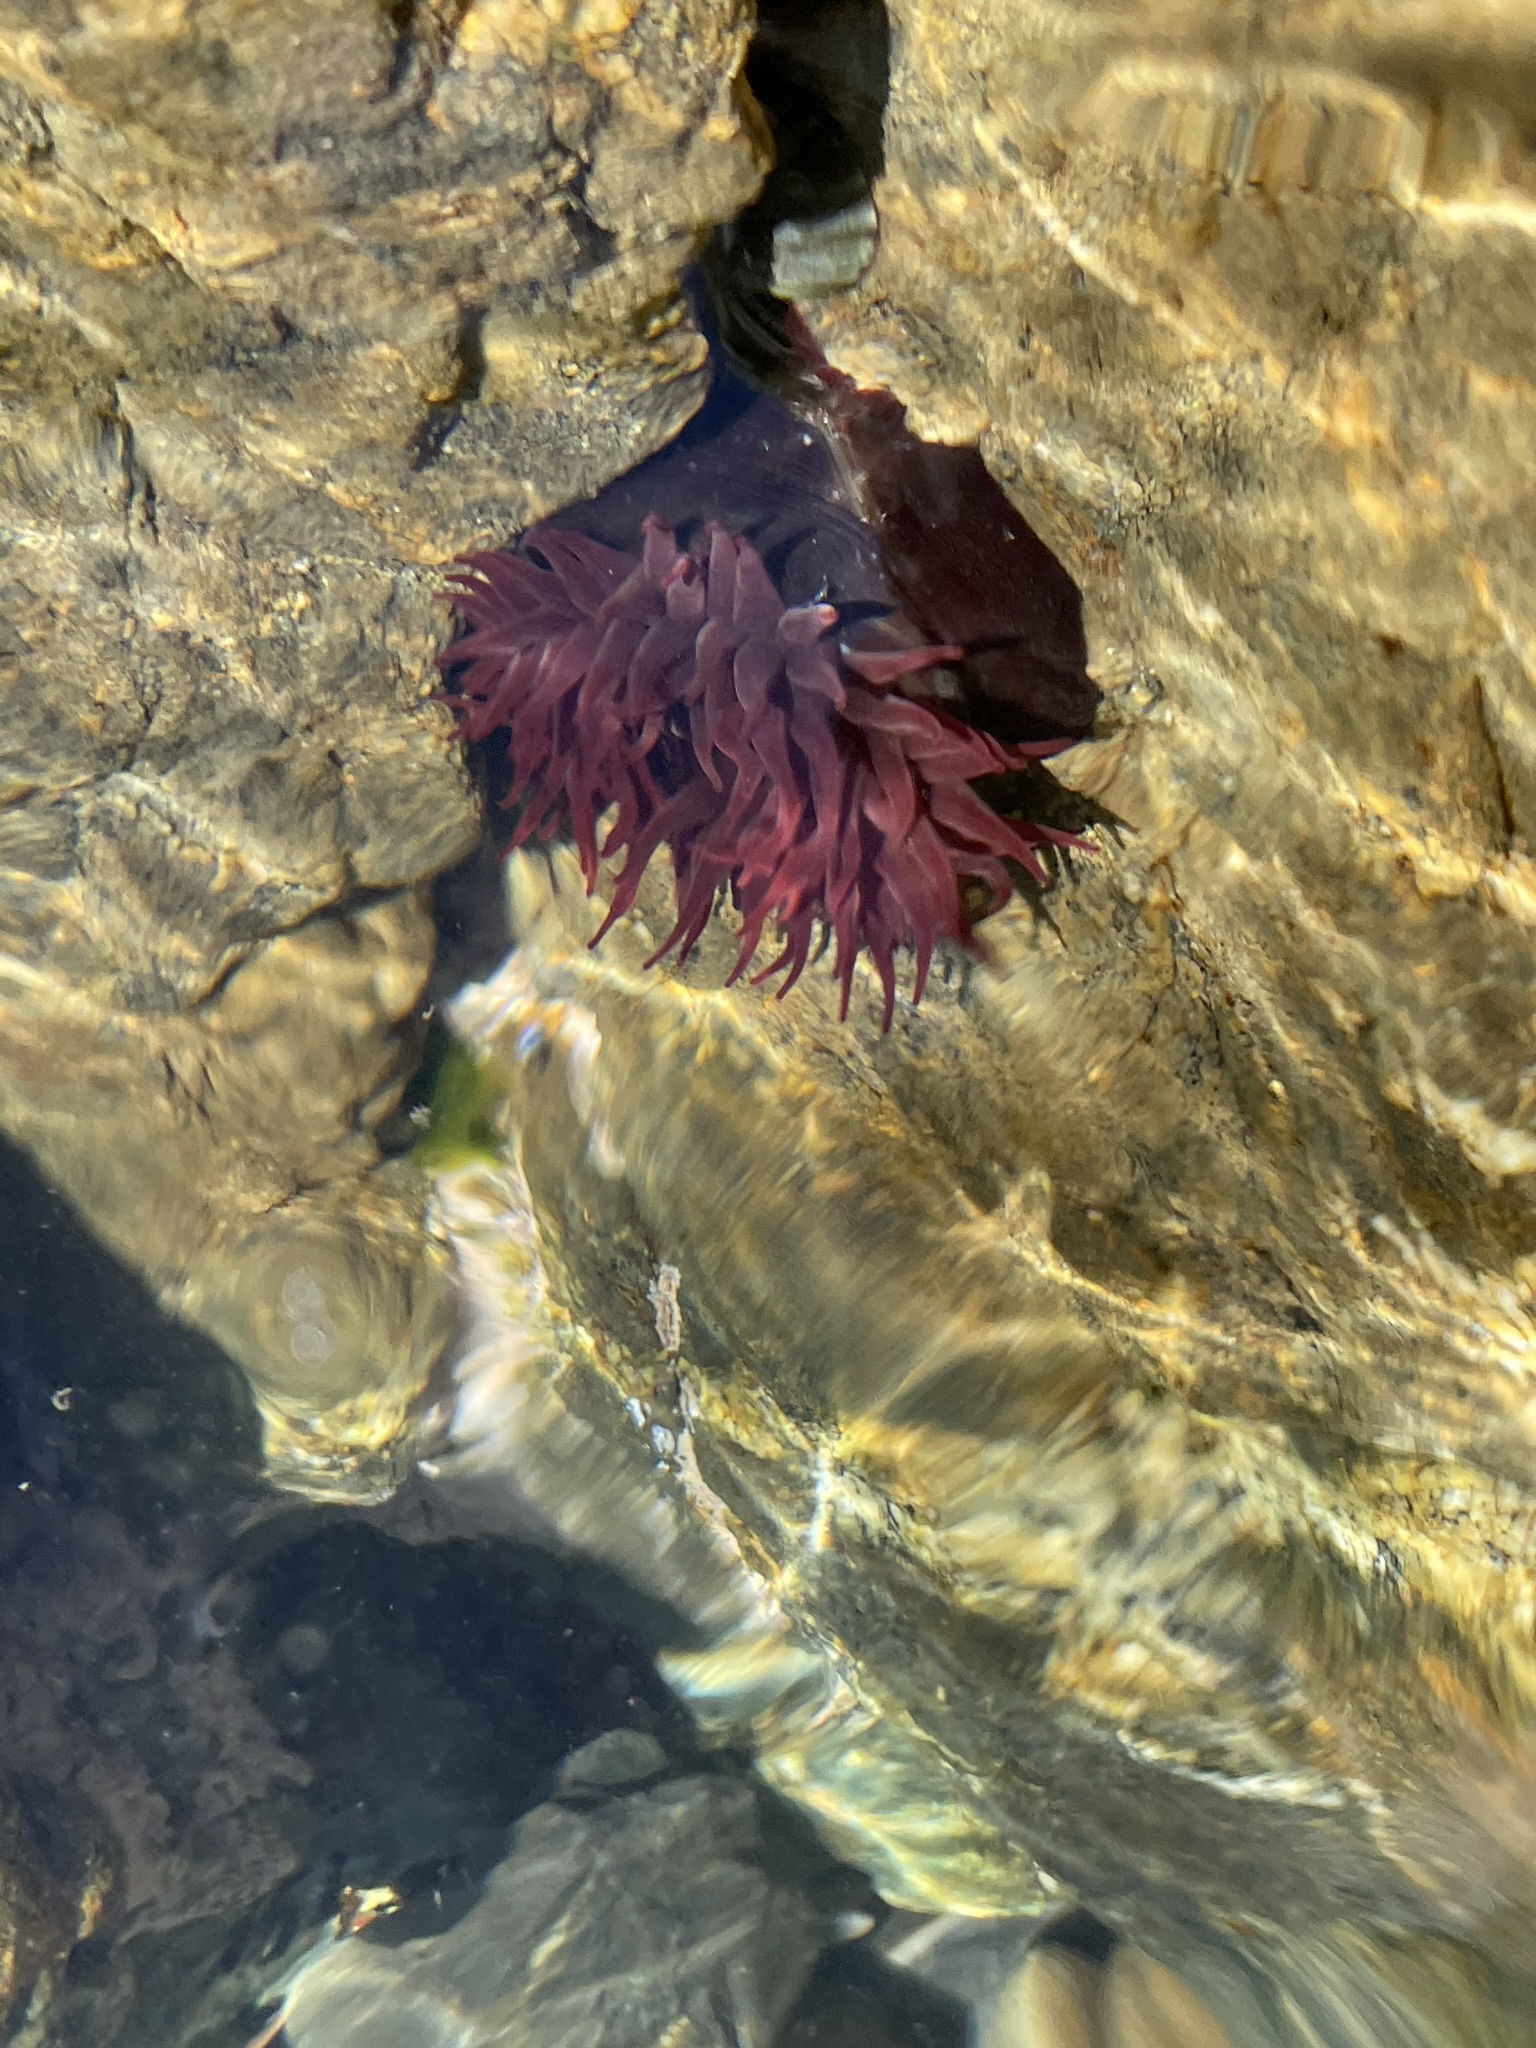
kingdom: Animalia
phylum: Cnidaria
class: Anthozoa
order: Actiniaria
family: Actiniidae
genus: Actinia
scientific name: Actinia tenebrosa
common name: Waratah anemone
